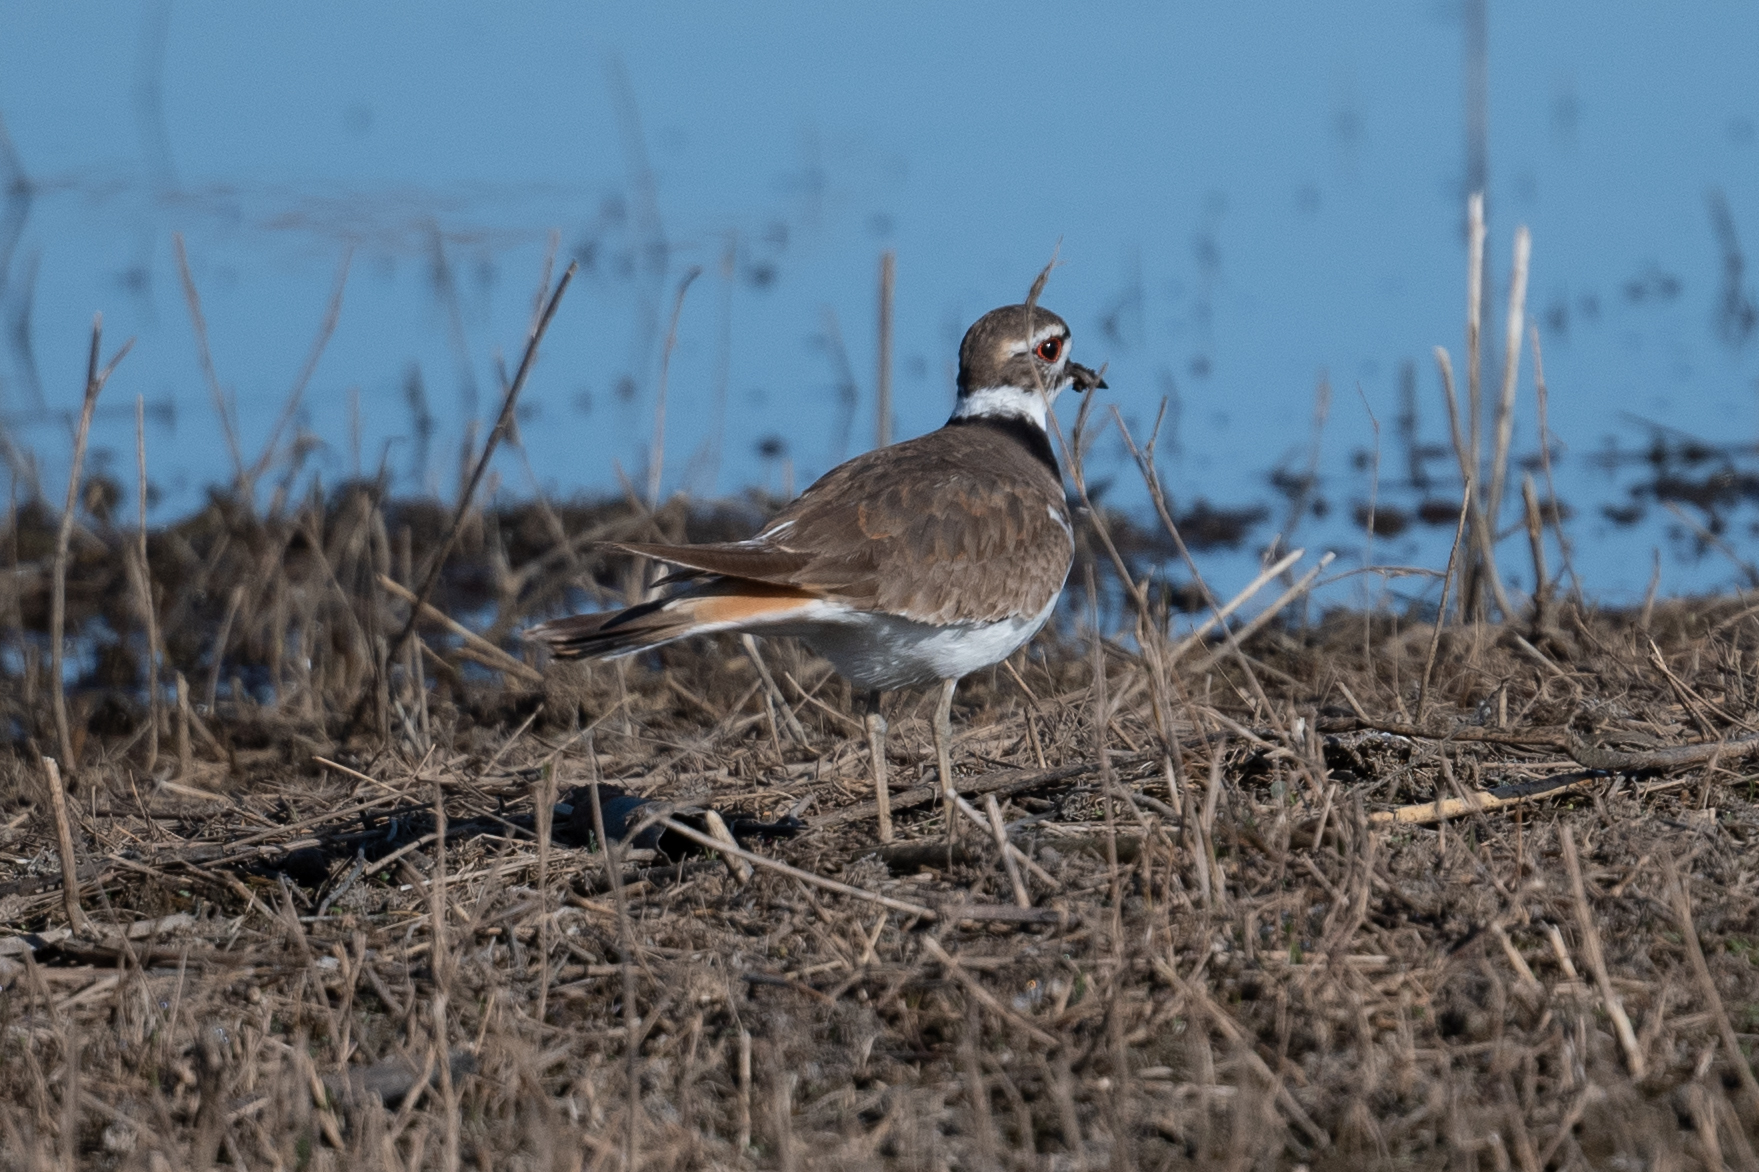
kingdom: Animalia
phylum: Chordata
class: Aves
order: Charadriiformes
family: Charadriidae
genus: Charadrius
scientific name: Charadrius vociferus
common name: Killdeer
